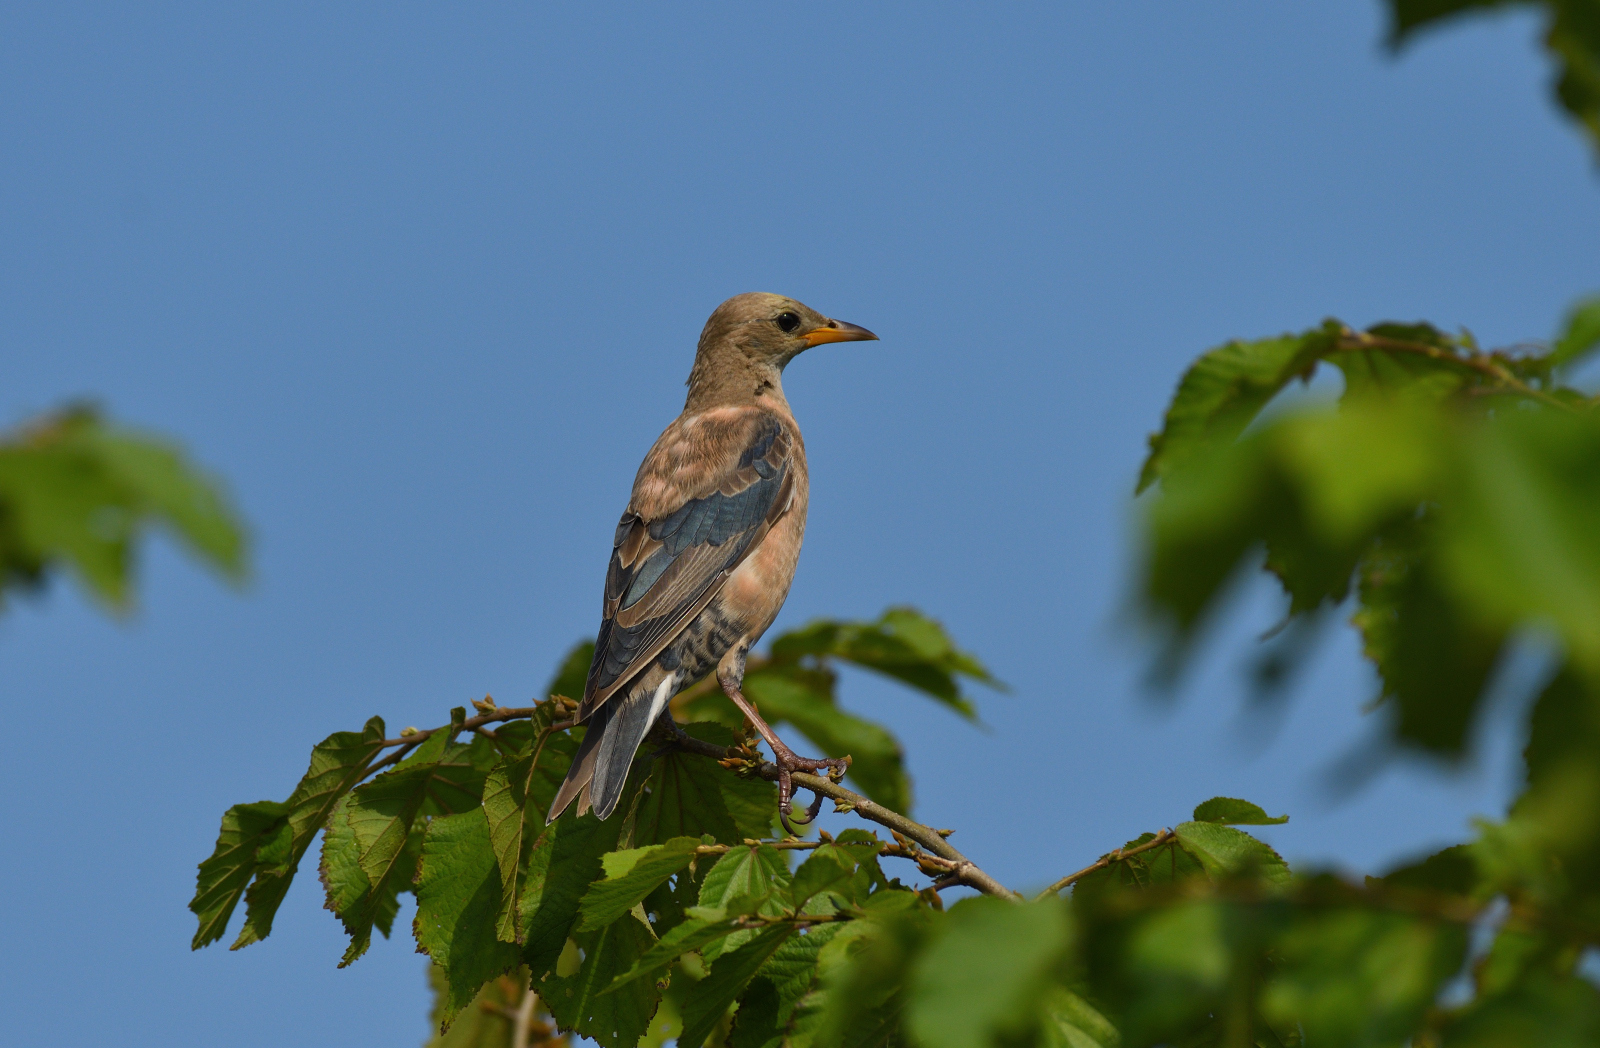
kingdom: Animalia
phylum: Chordata
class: Aves
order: Passeriformes
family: Sturnidae
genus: Pastor
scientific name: Pastor roseus
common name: Rosy starling
